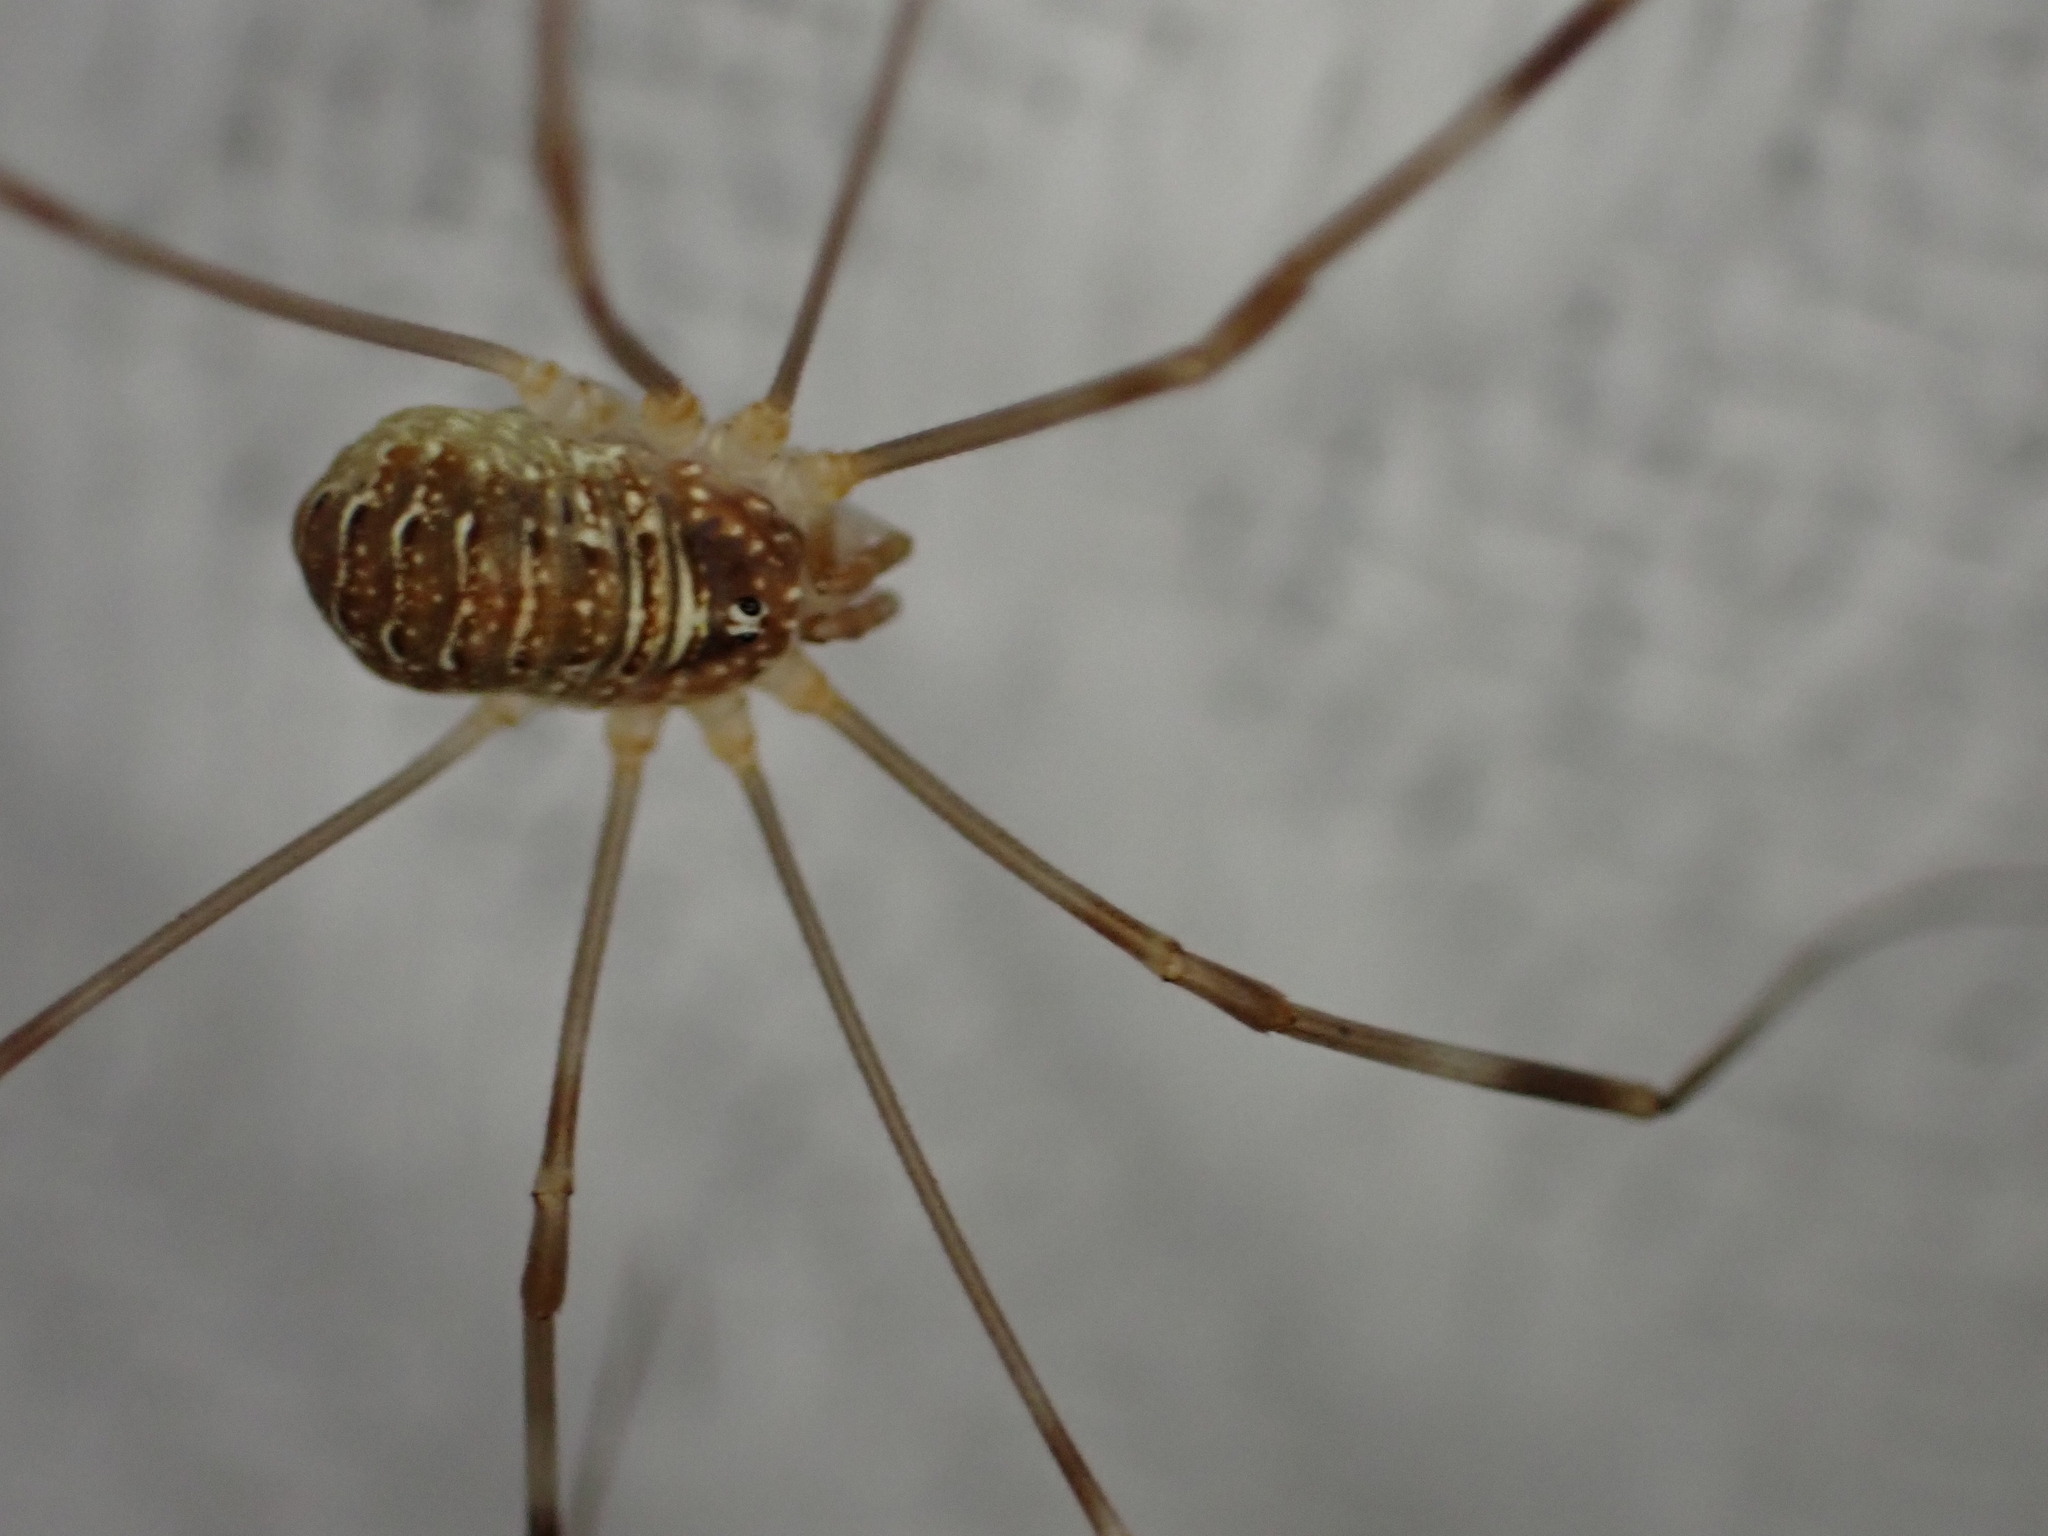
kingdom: Animalia
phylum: Arthropoda
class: Arachnida
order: Opiliones
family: Phalangiidae
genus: Opilio
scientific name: Opilio canestrinii
